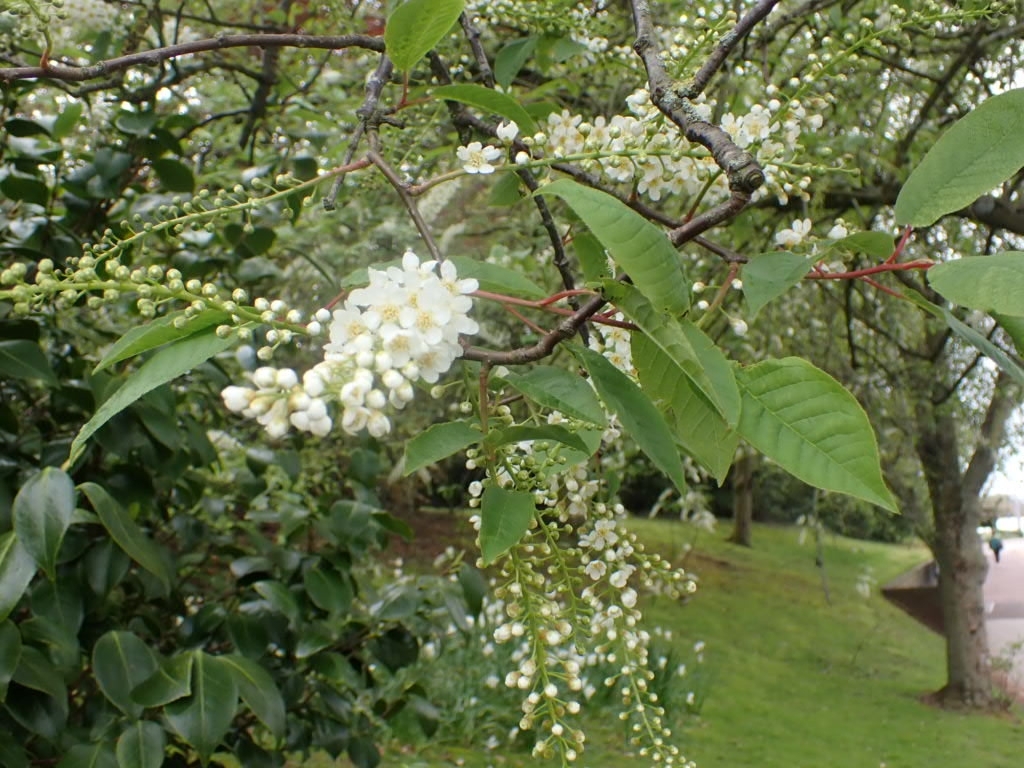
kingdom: Plantae
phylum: Tracheophyta
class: Magnoliopsida
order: Rosales
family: Rosaceae
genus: Prunus
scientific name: Prunus padus
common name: Bird cherry
